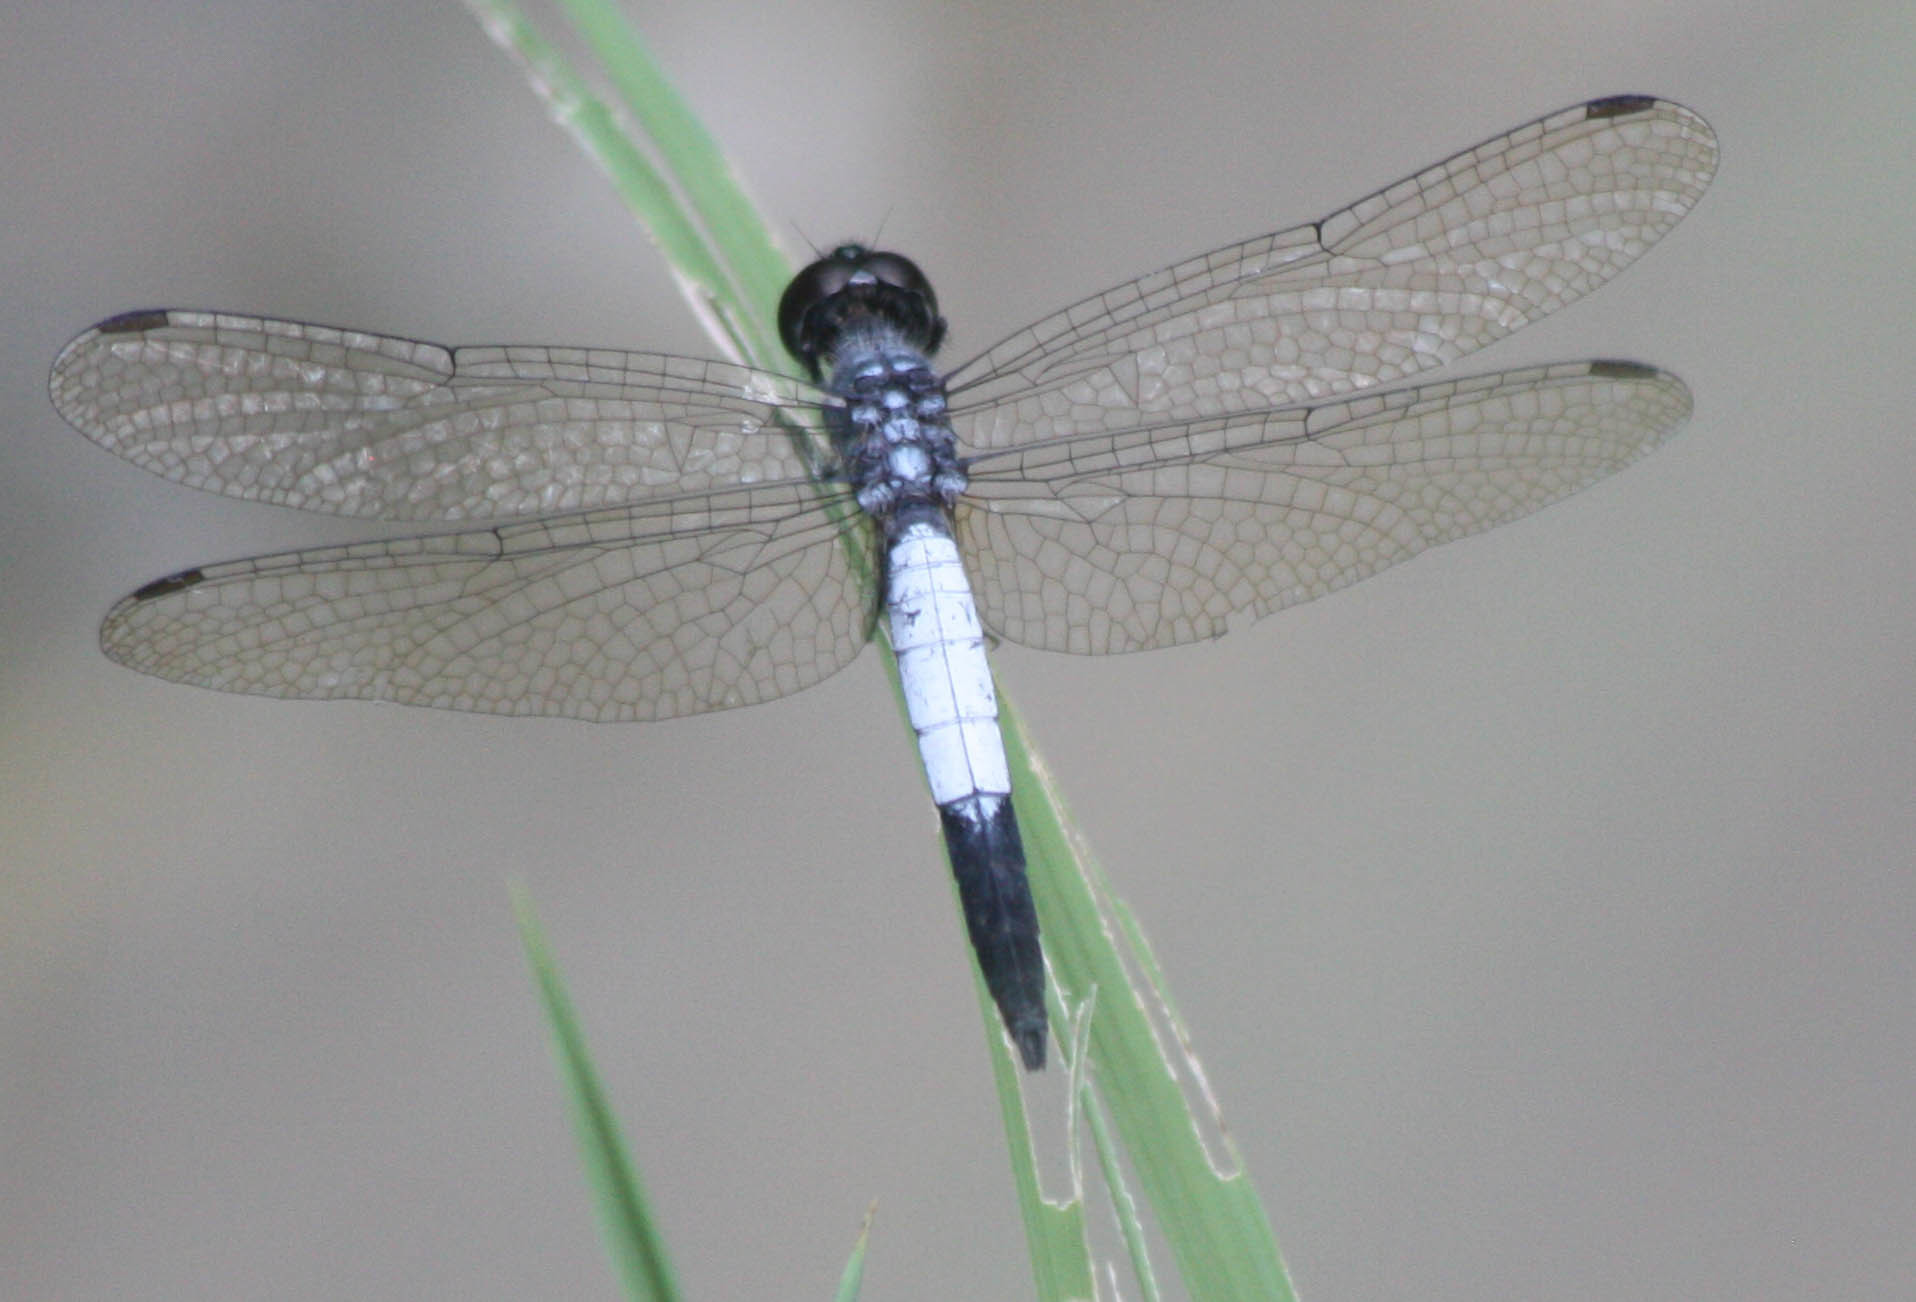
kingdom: Animalia
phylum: Arthropoda
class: Insecta
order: Odonata
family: Libellulidae
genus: Brachydiplax
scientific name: Brachydiplax farinosa
